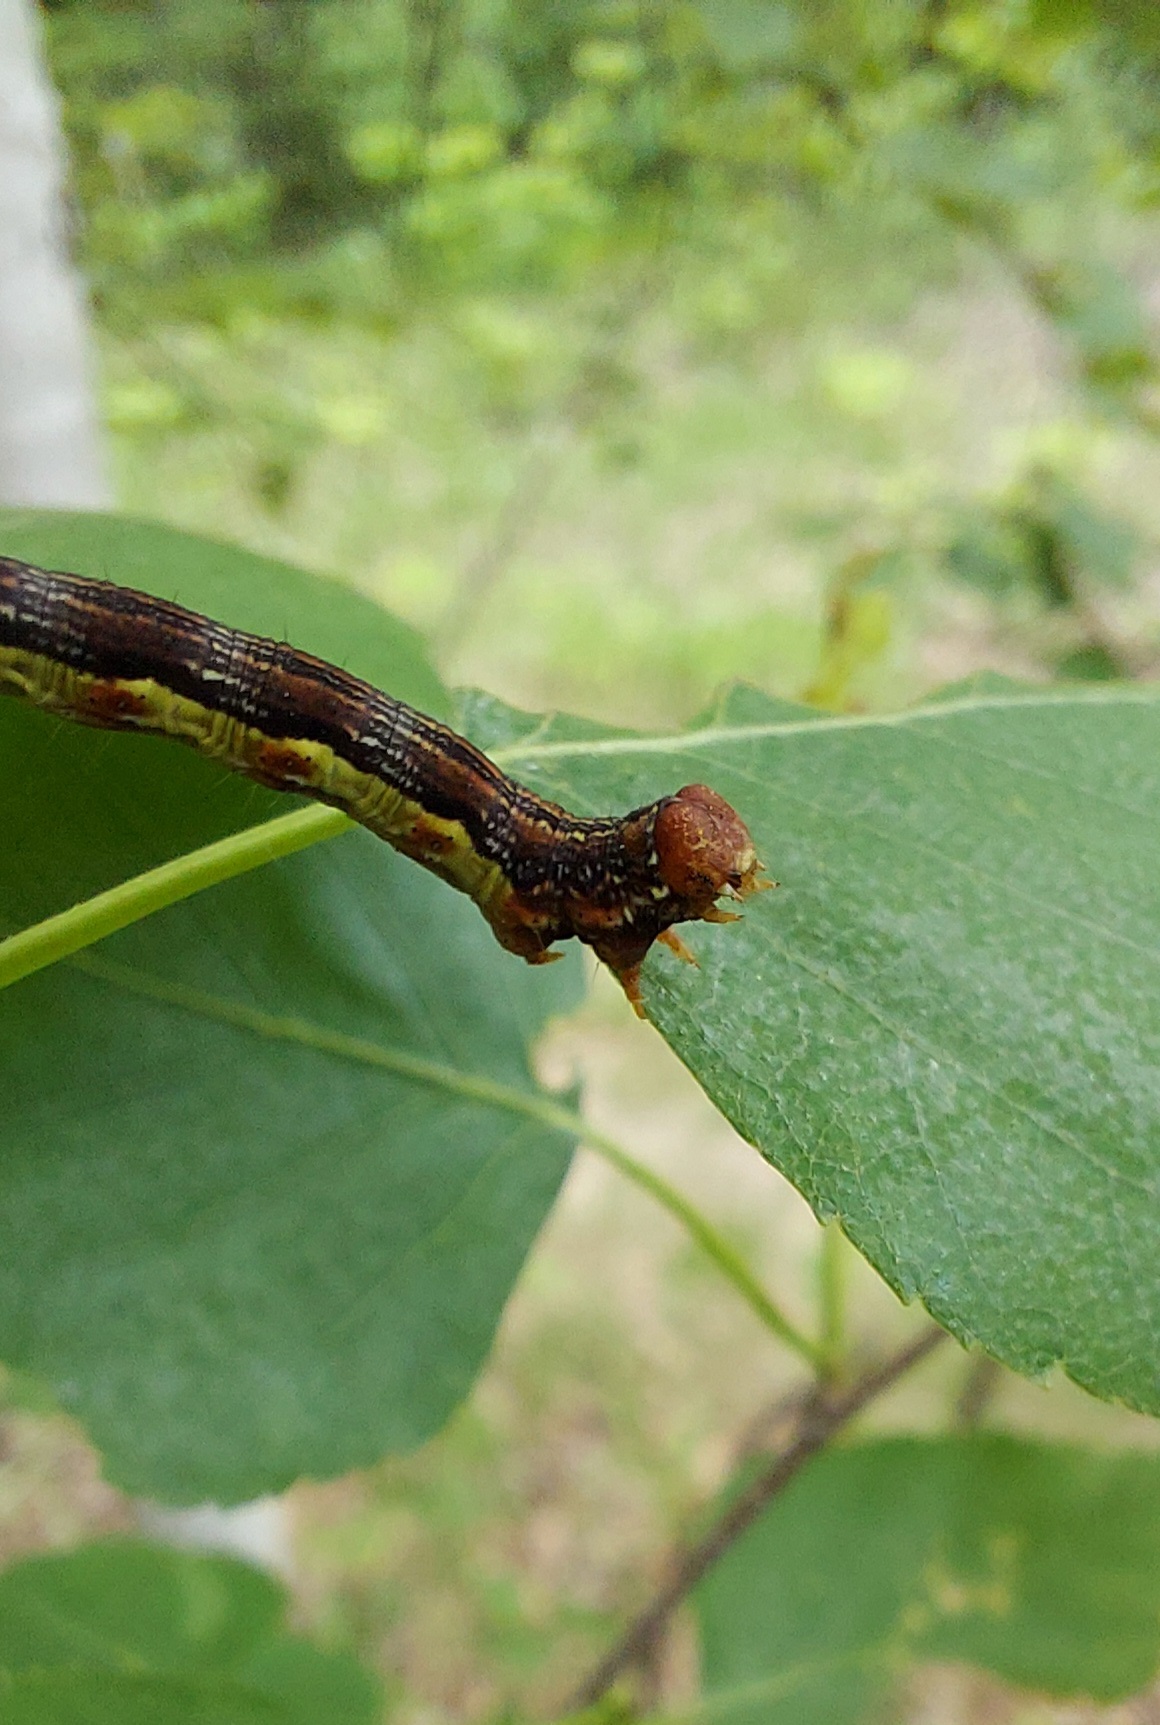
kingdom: Animalia
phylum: Arthropoda
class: Insecta
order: Lepidoptera
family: Geometridae
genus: Erannis
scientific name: Erannis defoliaria
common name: Mottled umber
